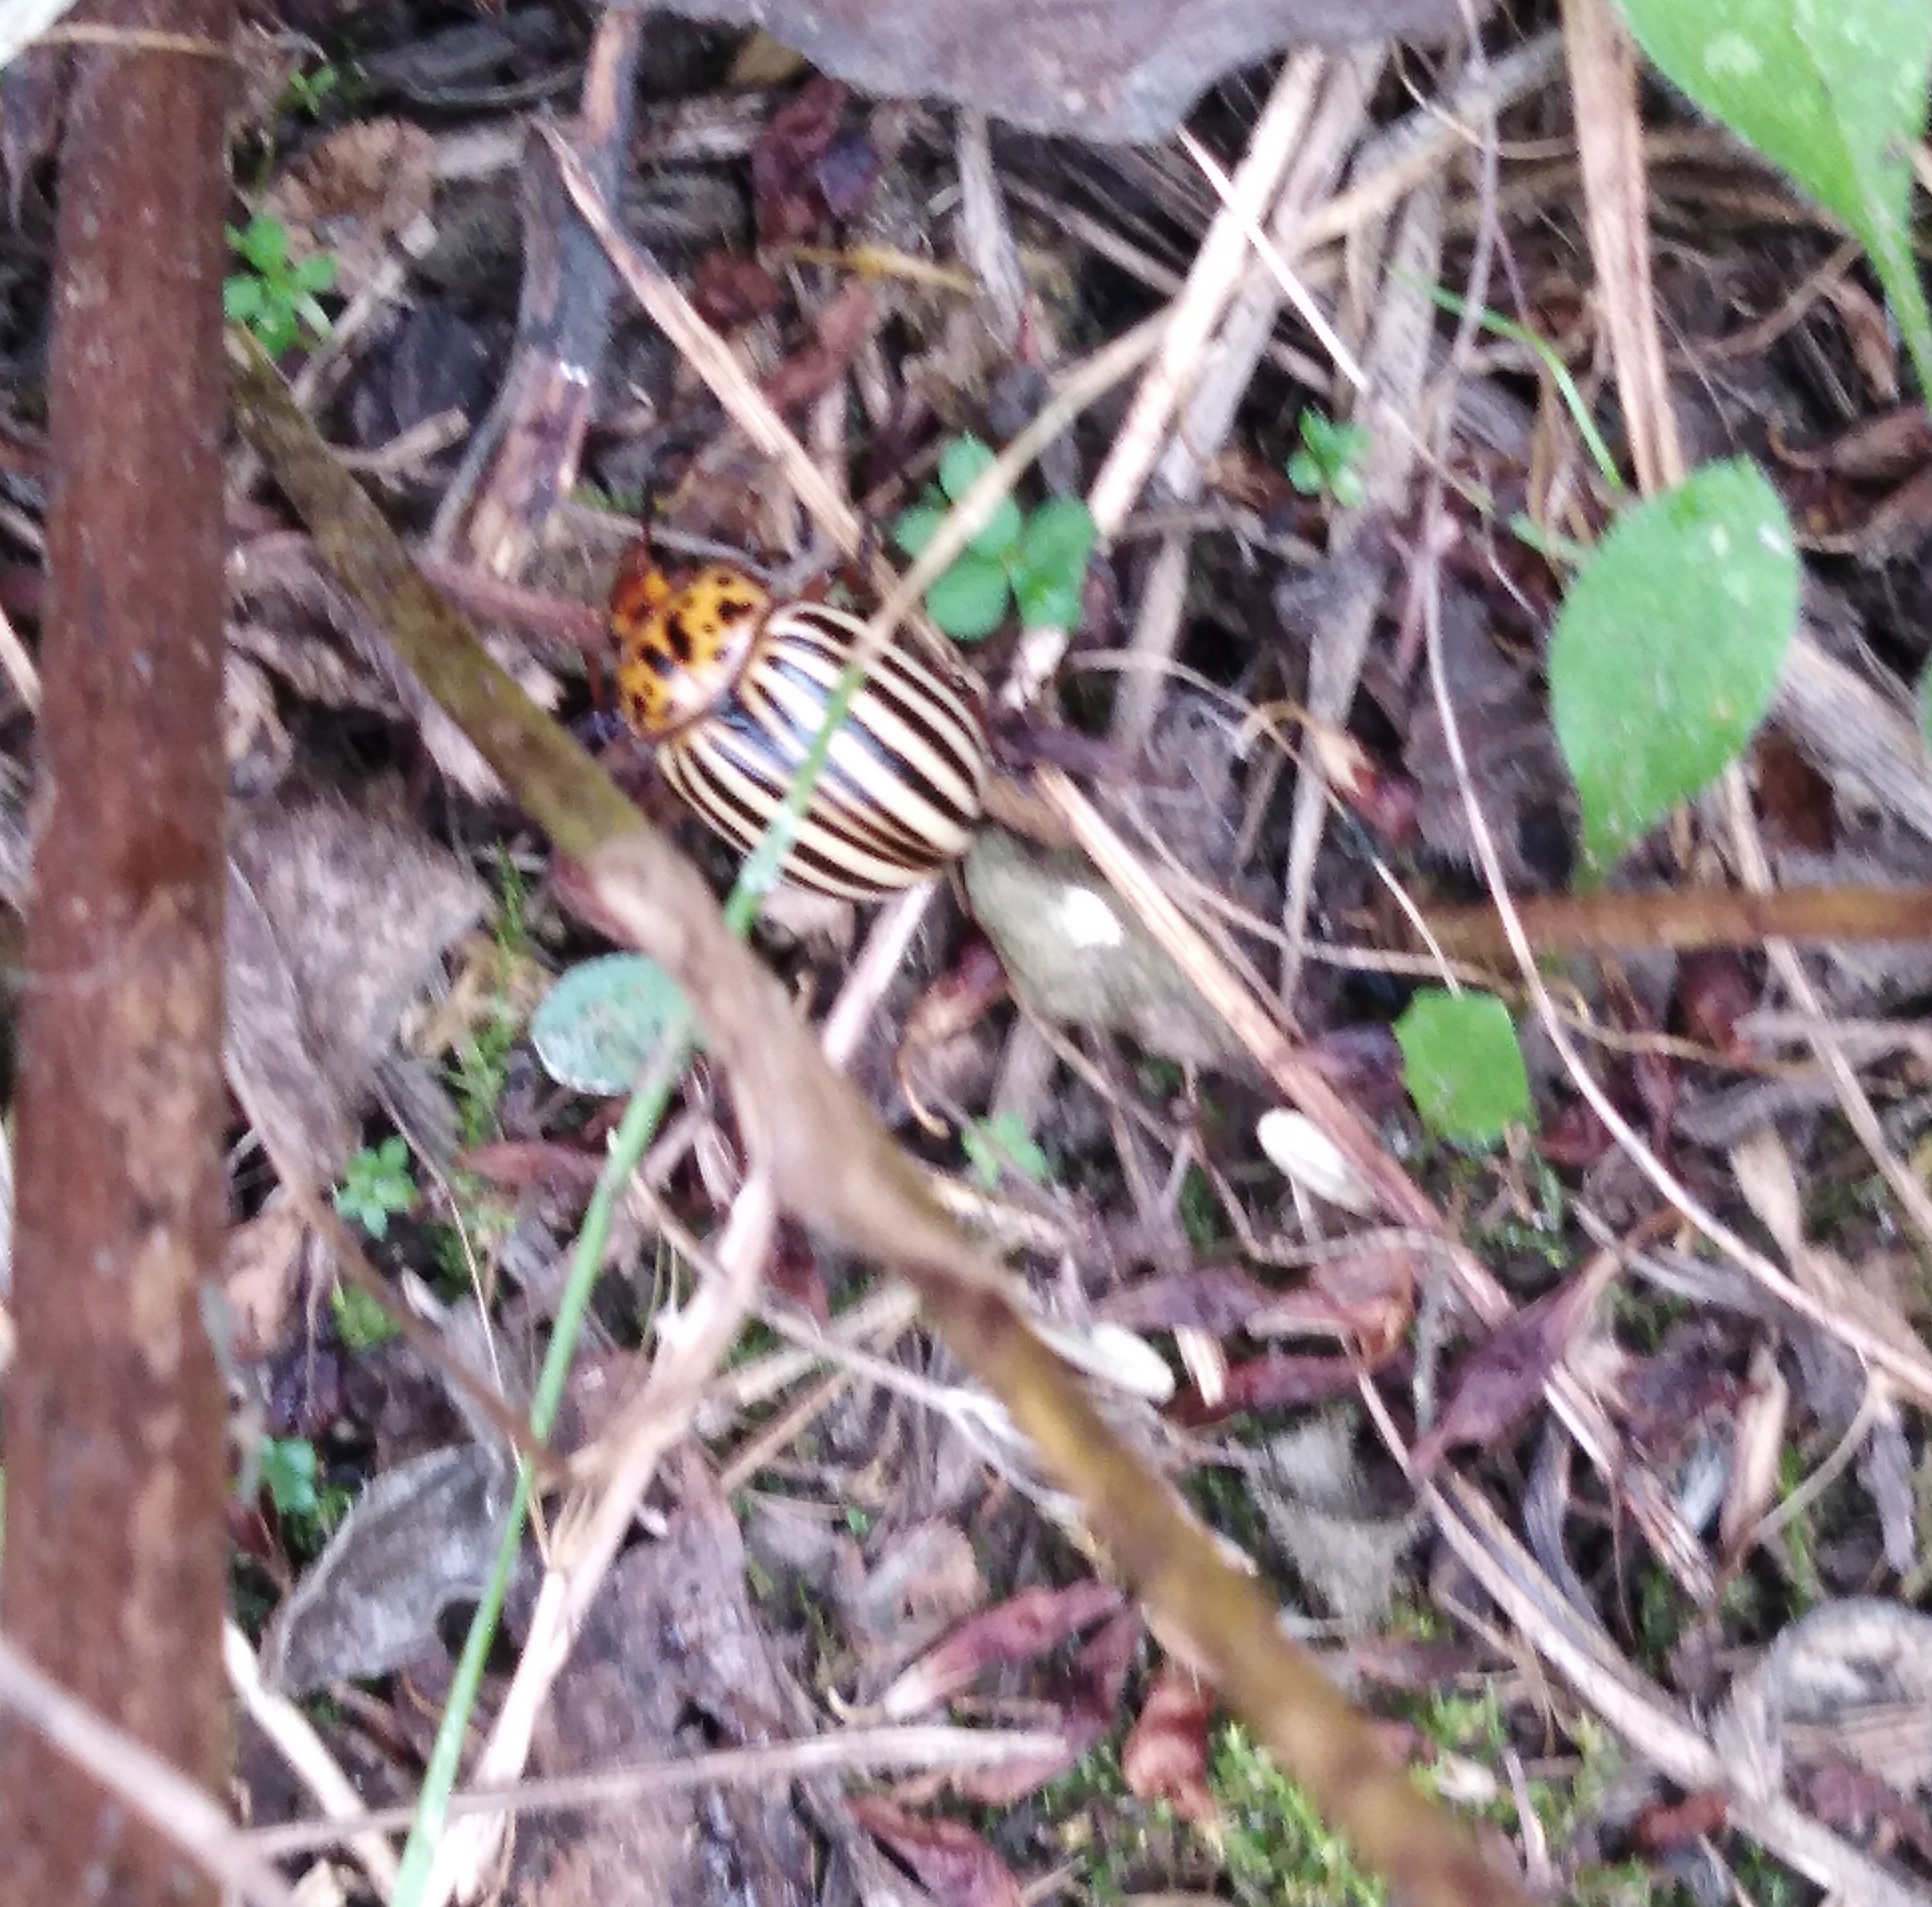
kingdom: Animalia
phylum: Arthropoda
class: Insecta
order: Coleoptera
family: Chrysomelidae
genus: Leptinotarsa
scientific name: Leptinotarsa decemlineata
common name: Colorado potato beetle
